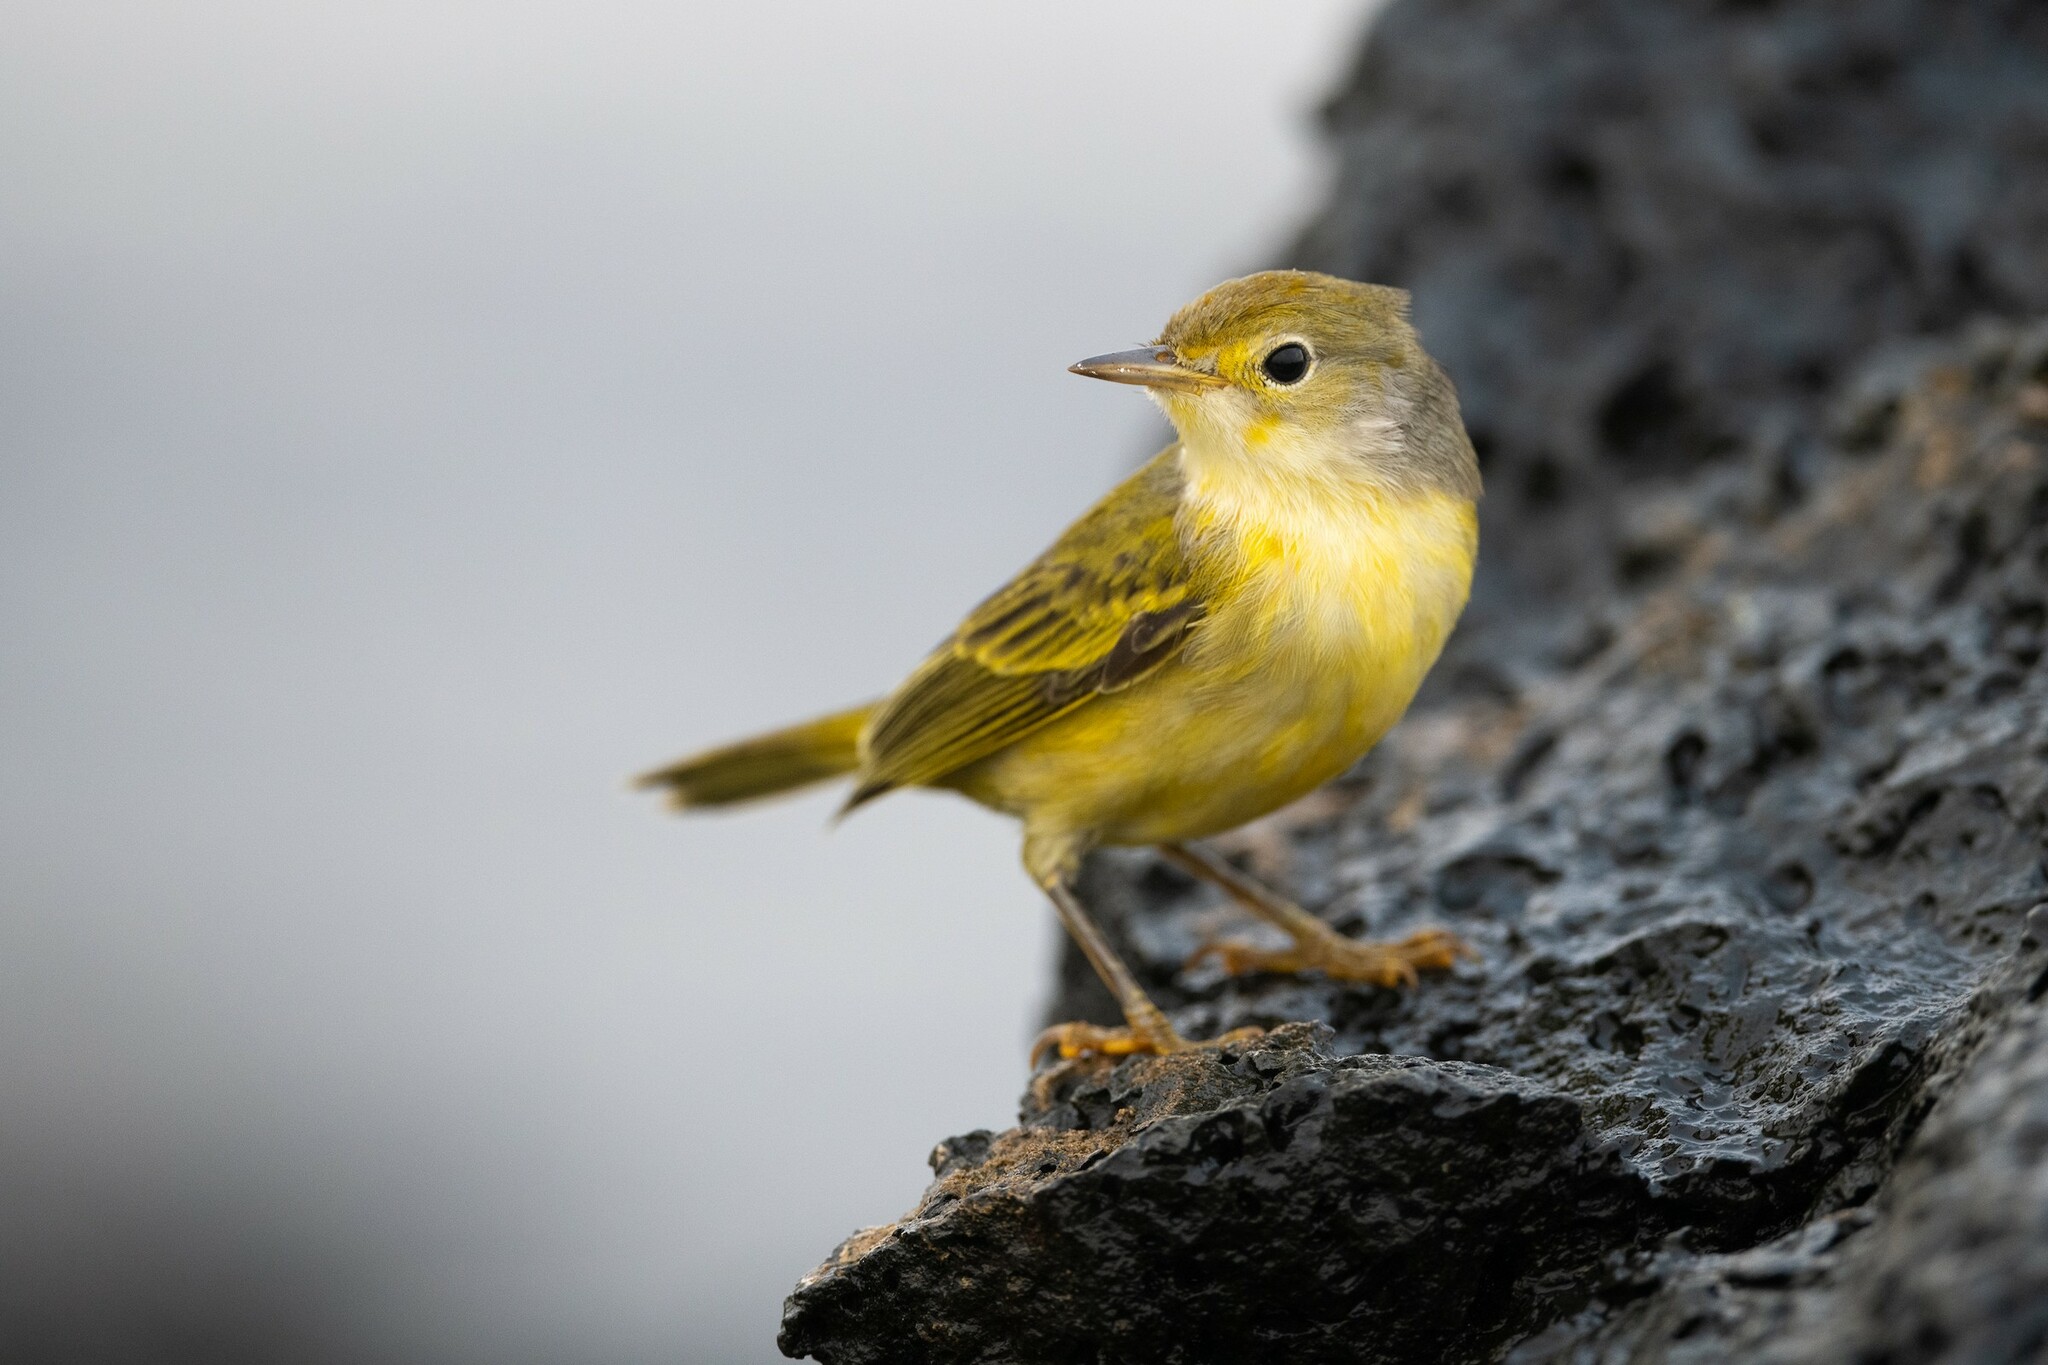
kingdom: Animalia
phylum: Chordata
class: Aves
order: Passeriformes
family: Parulidae
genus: Setophaga
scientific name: Setophaga petechia
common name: Yellow warbler
